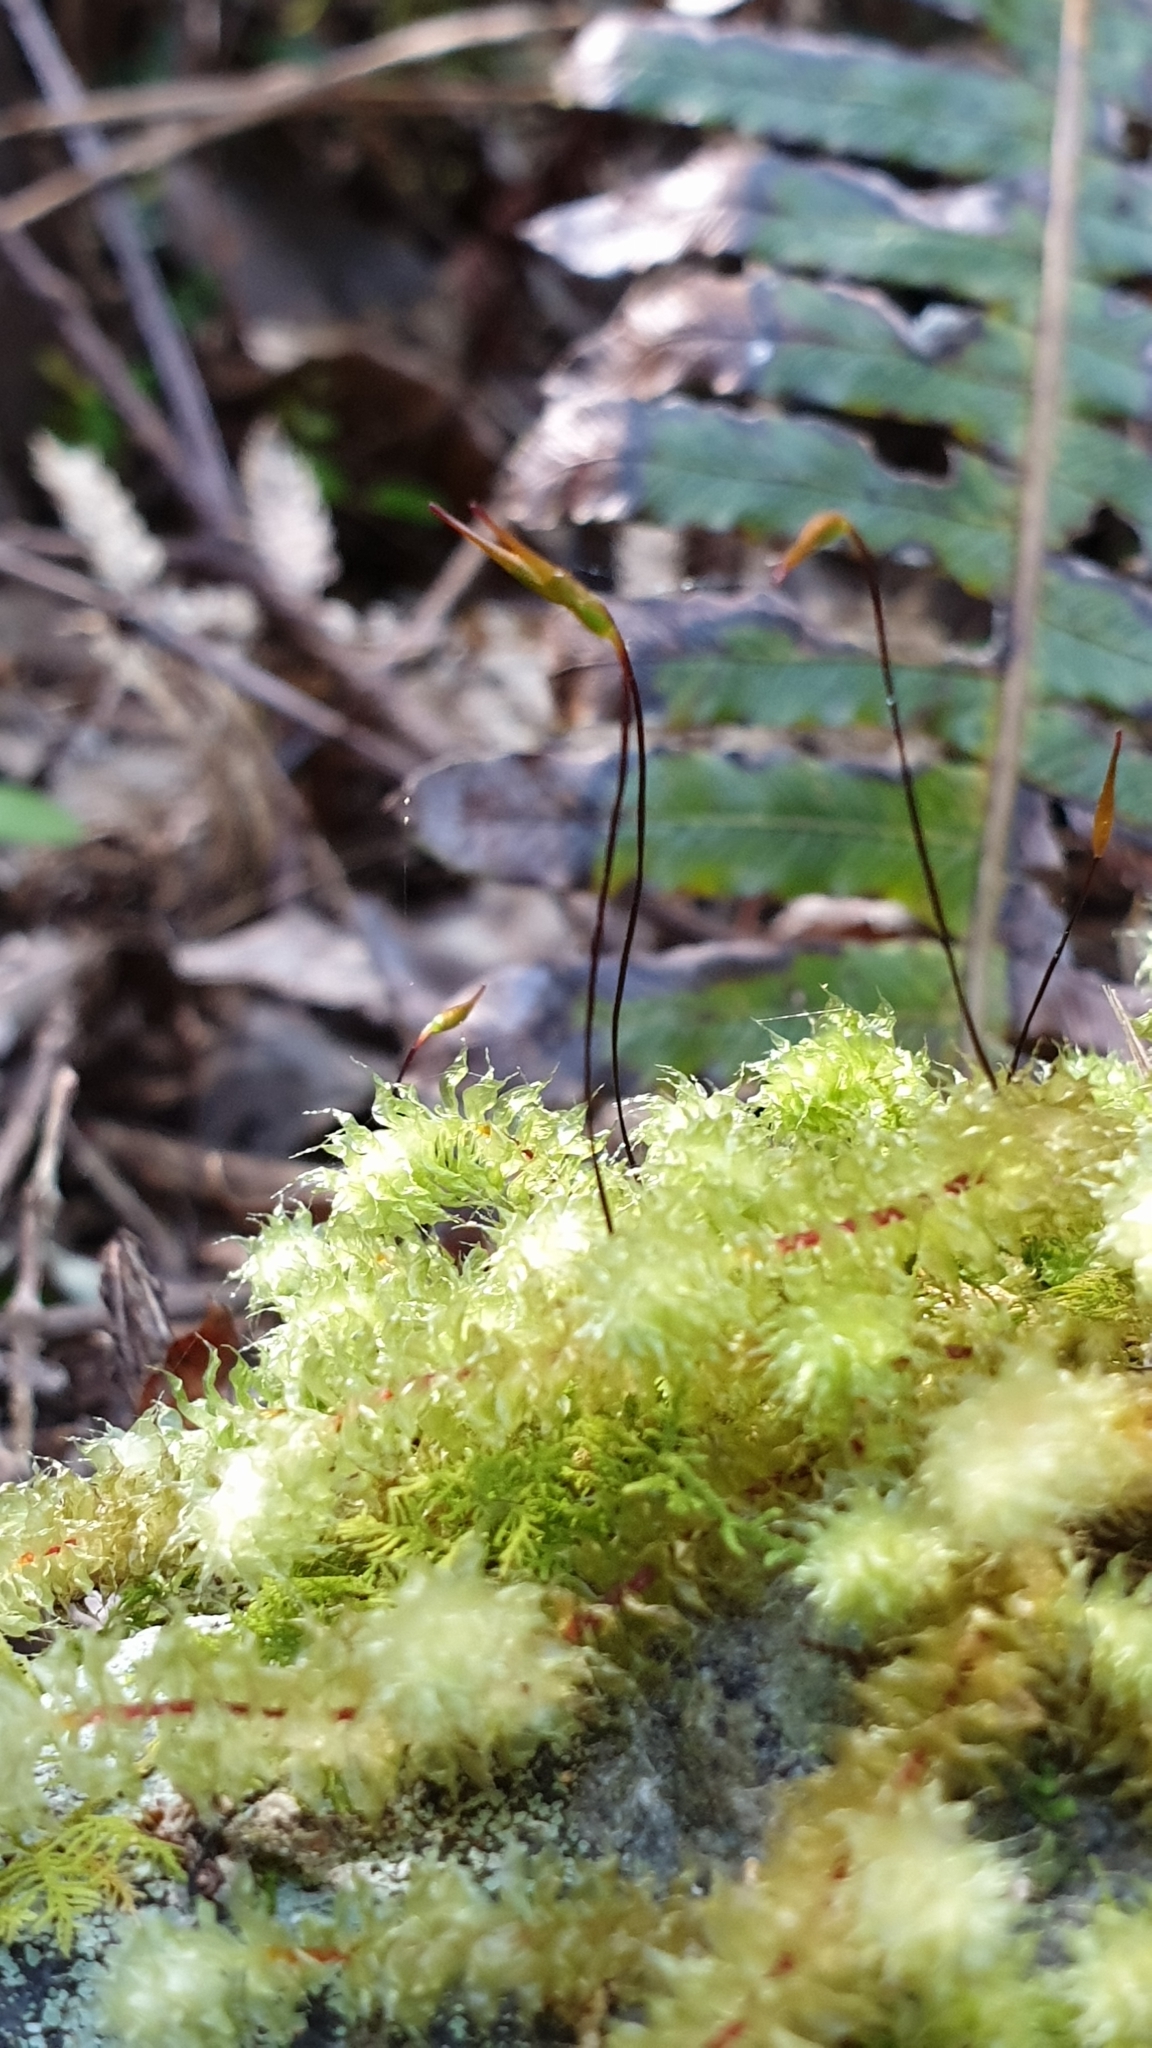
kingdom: Plantae
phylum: Bryophyta
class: Bryopsida
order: Ptychomniales
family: Ptychomniaceae
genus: Ptychomnion
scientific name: Ptychomnion aciculare
